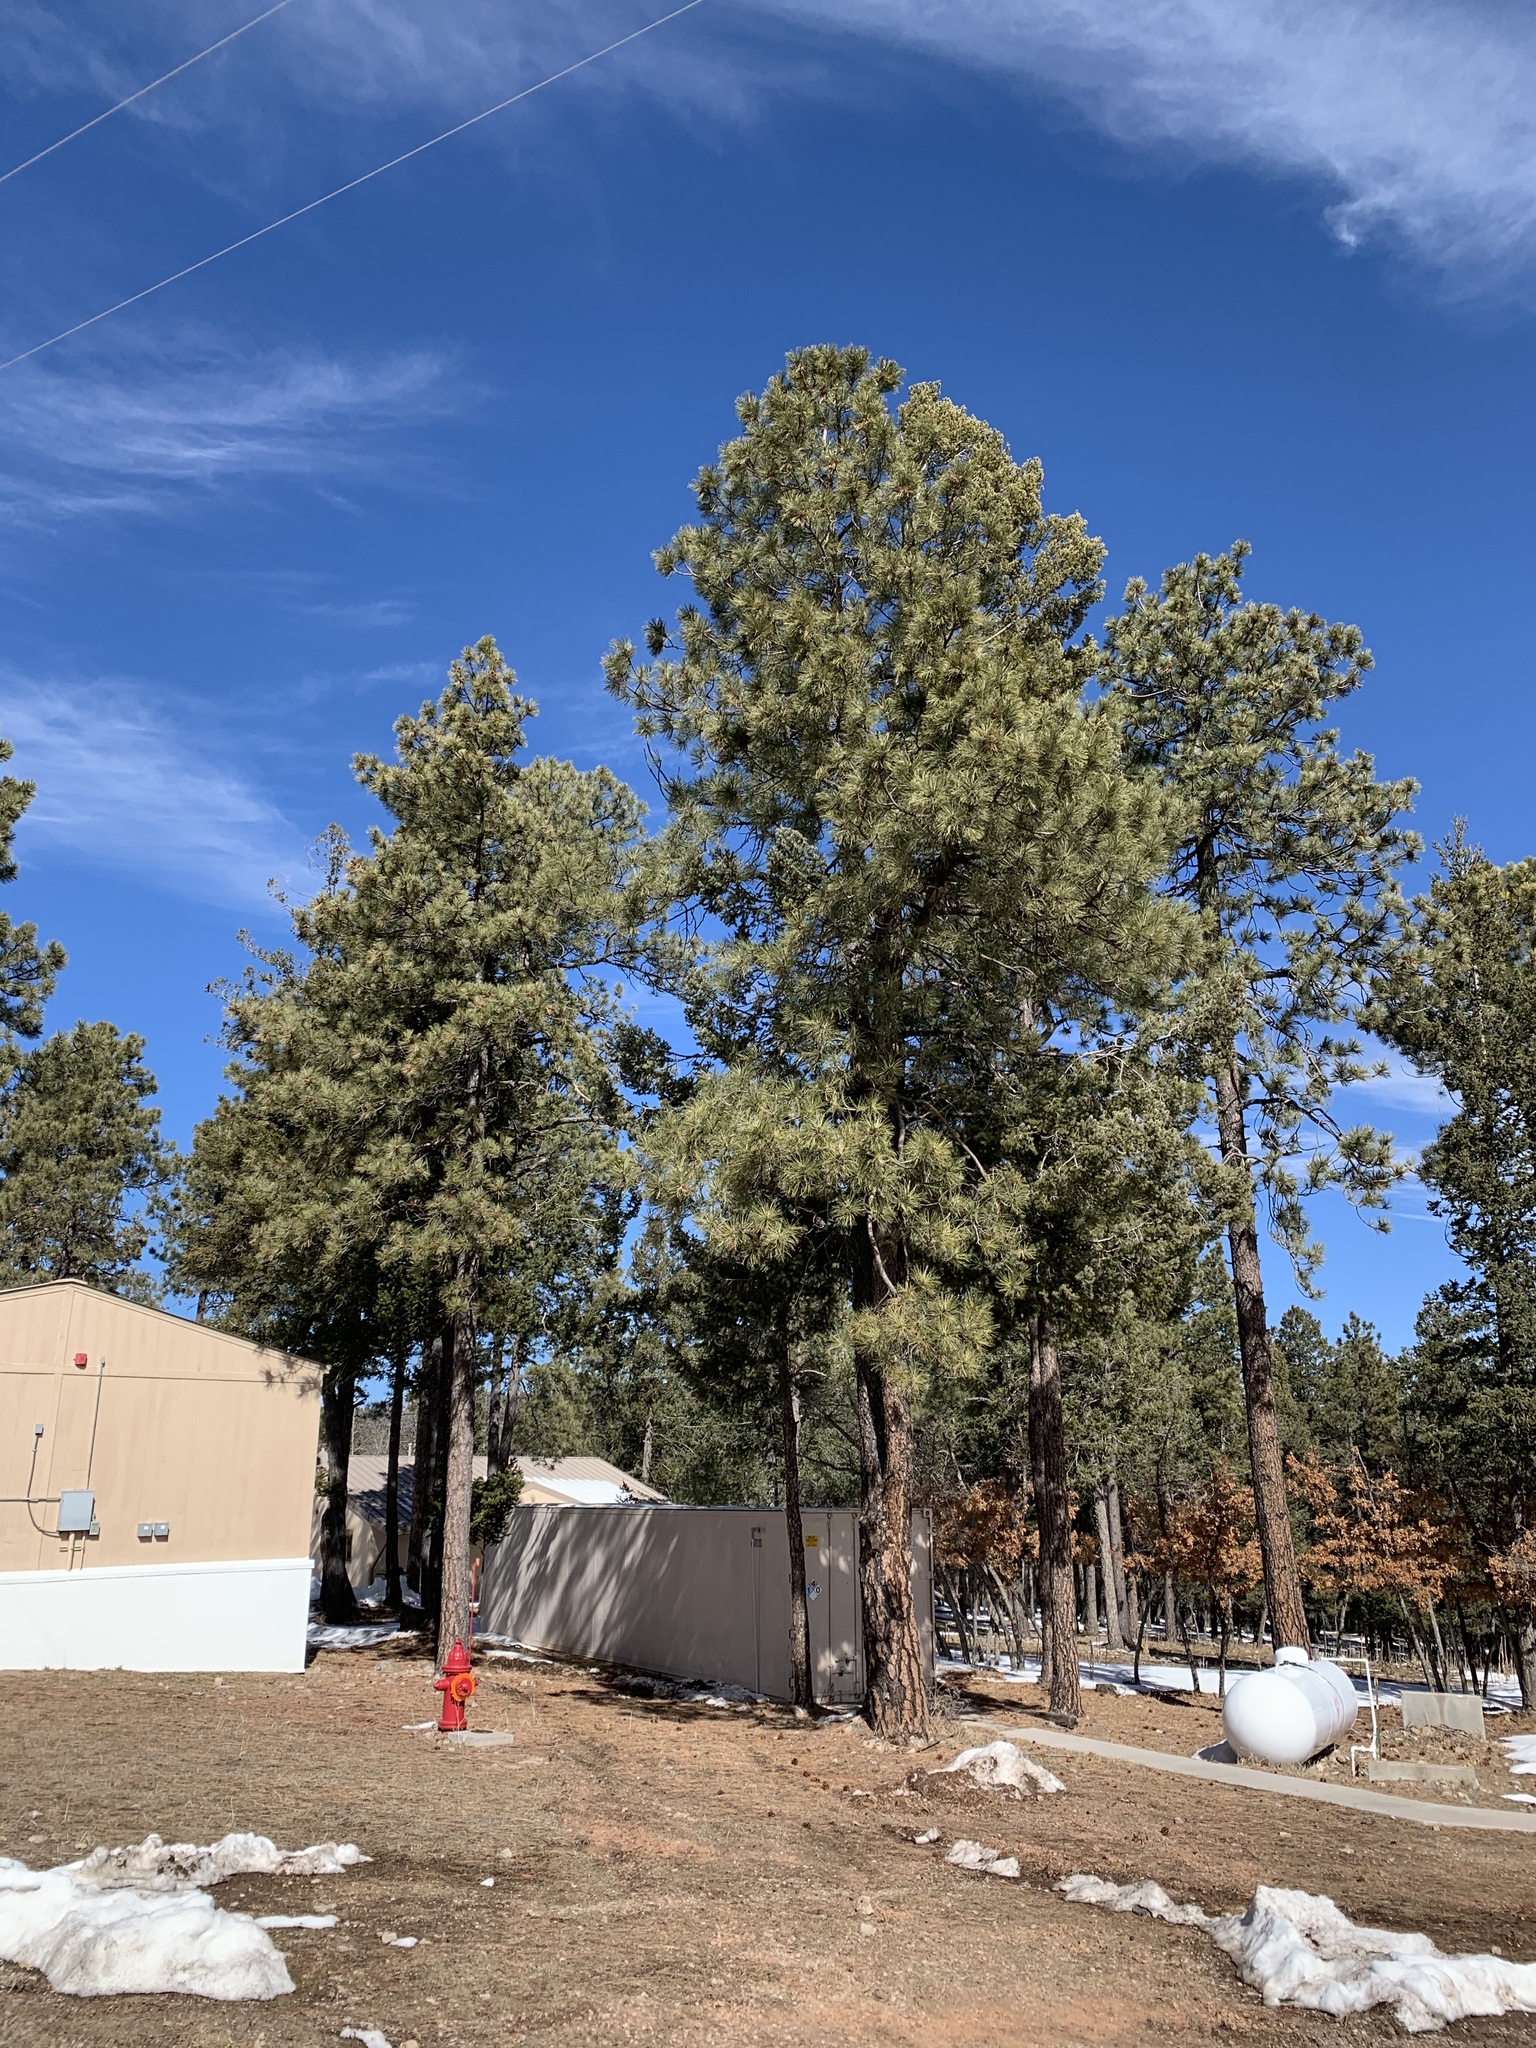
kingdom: Plantae
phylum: Tracheophyta
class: Pinopsida
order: Pinales
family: Pinaceae
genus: Pinus
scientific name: Pinus ponderosa
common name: Western yellow-pine
